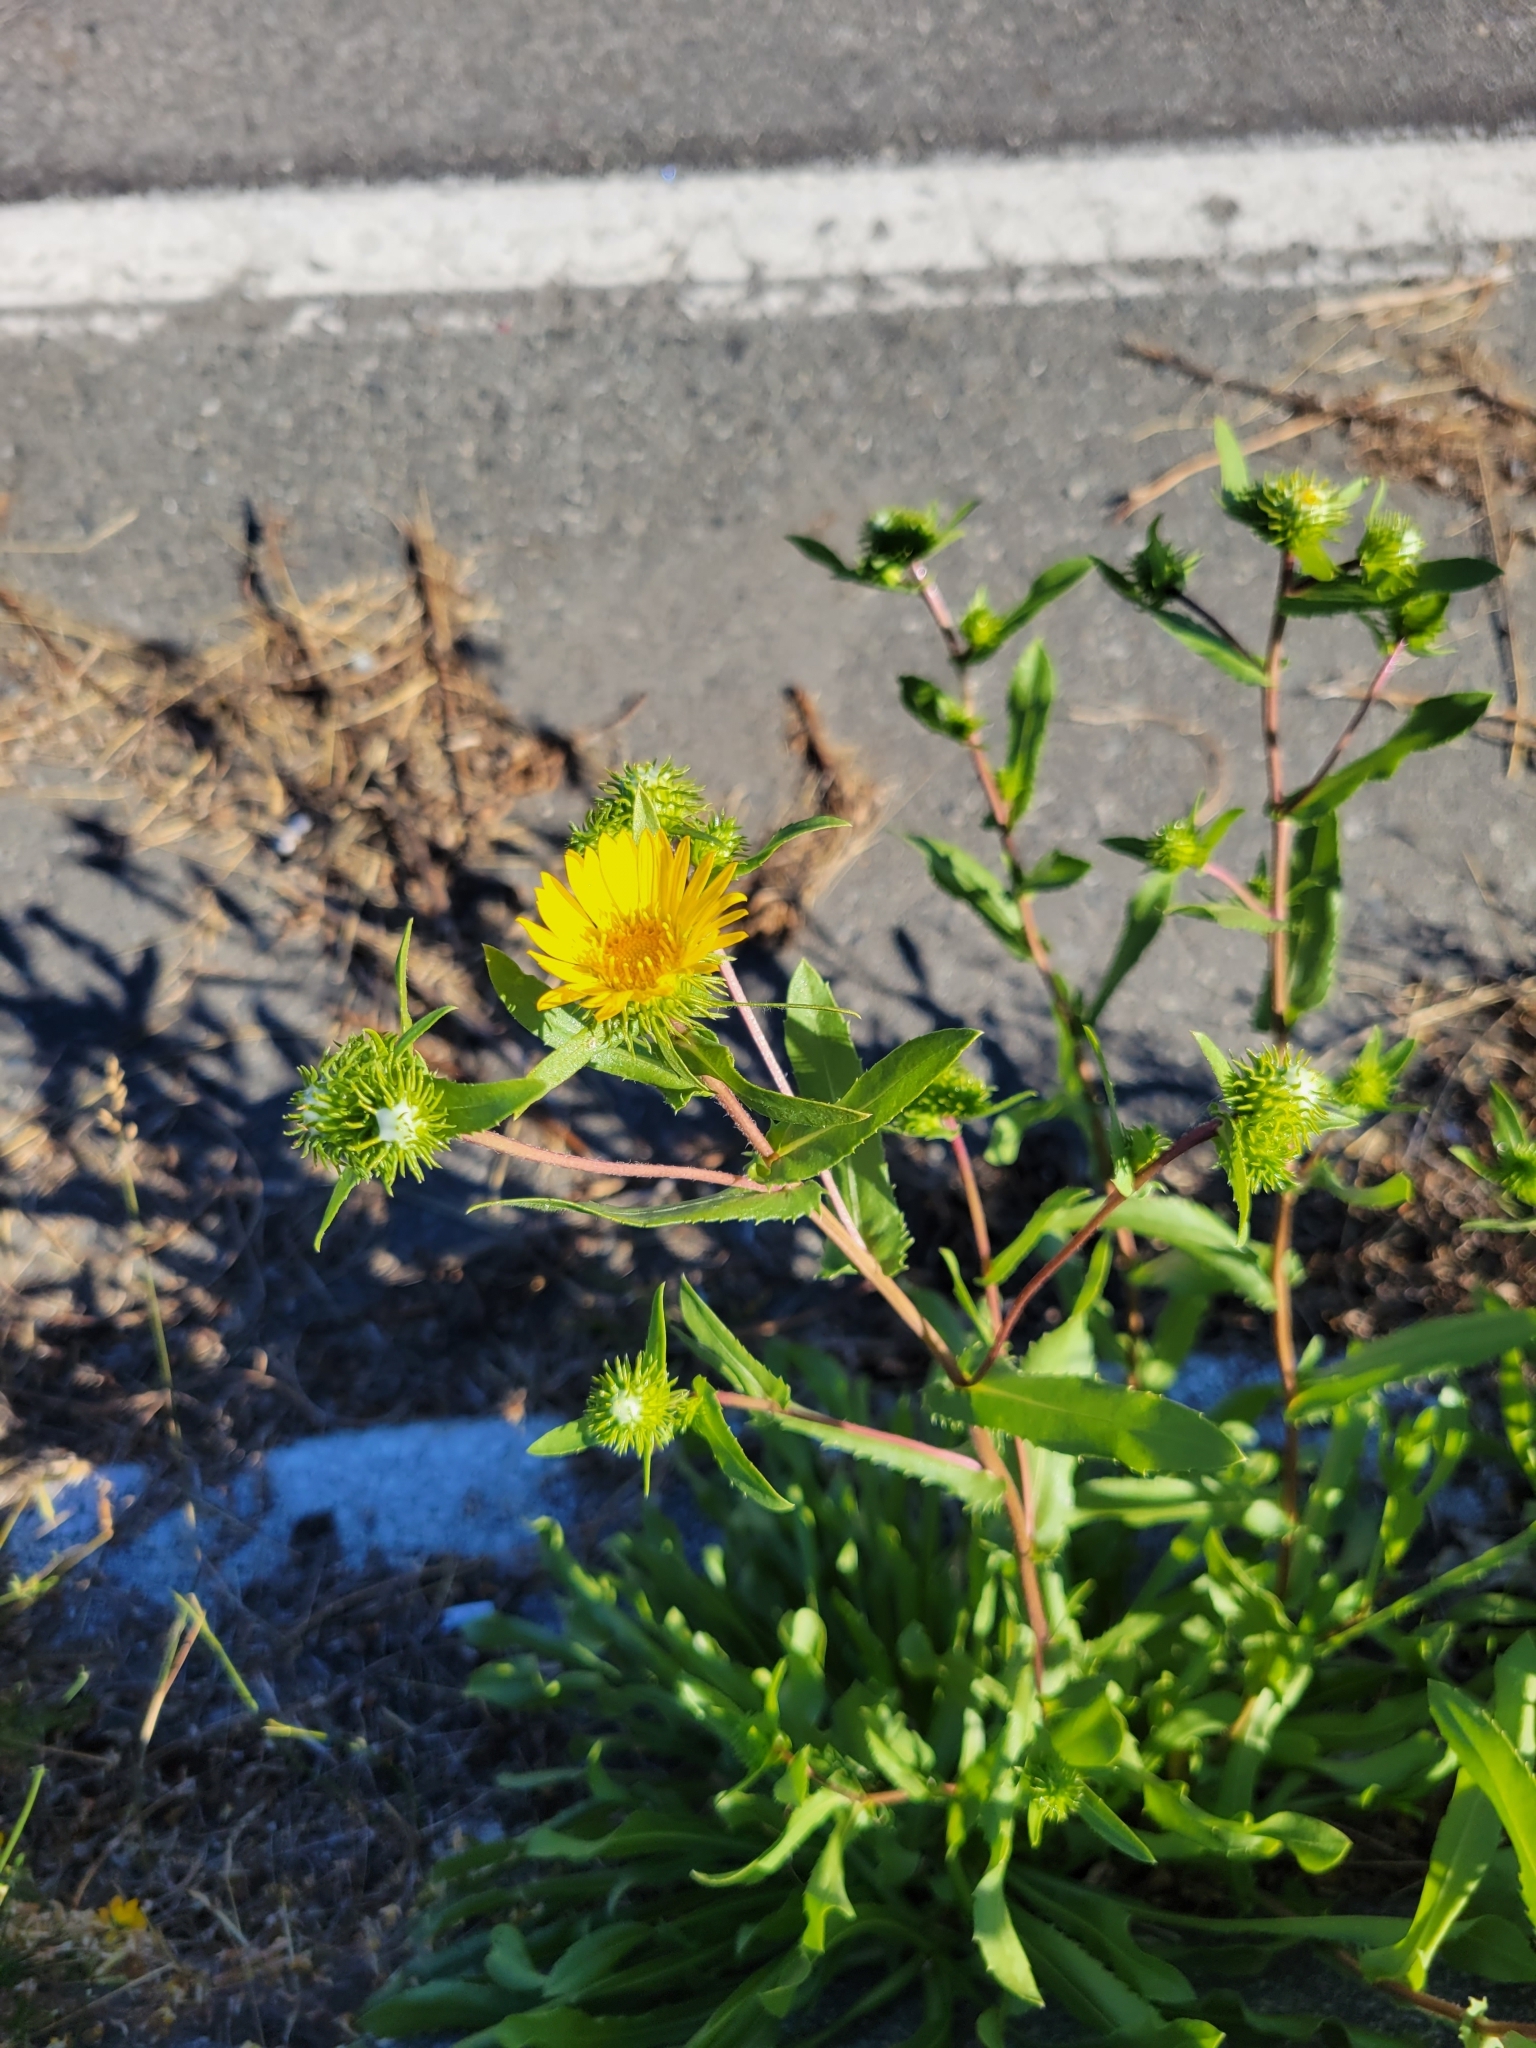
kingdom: Plantae
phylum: Tracheophyta
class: Magnoliopsida
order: Asterales
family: Asteraceae
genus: Grindelia
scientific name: Grindelia hirsutula
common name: Hairy gumweed
